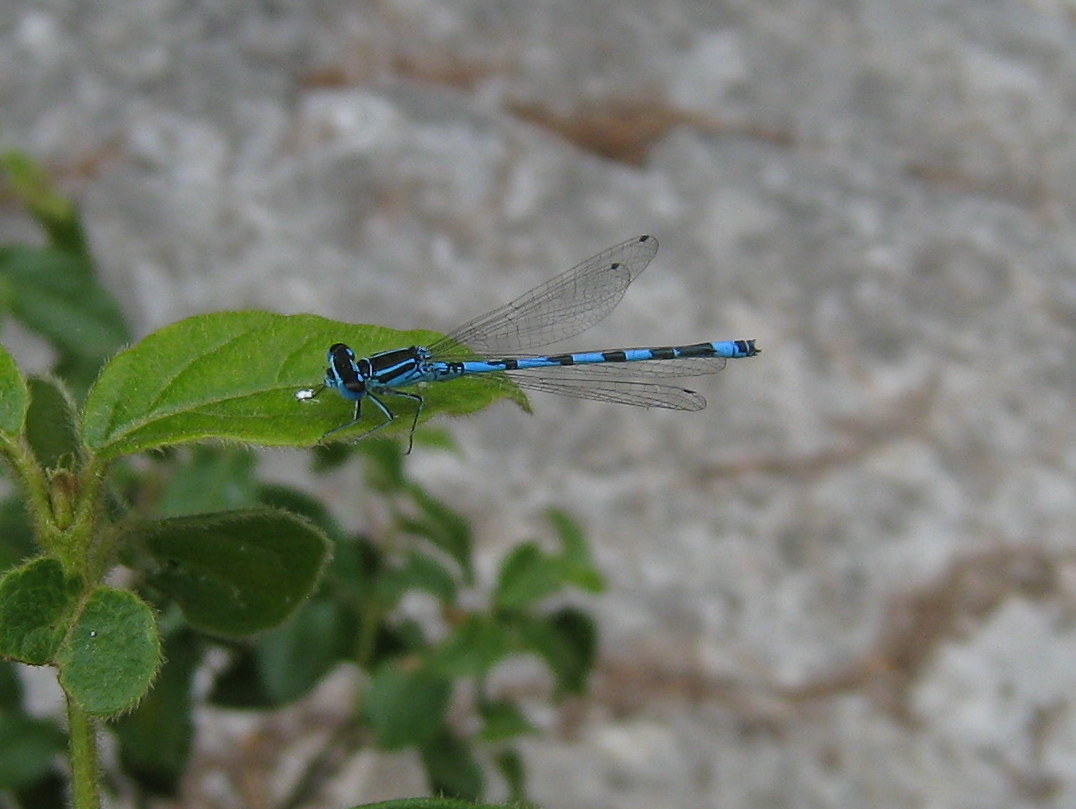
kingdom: Animalia
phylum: Arthropoda
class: Insecta
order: Odonata
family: Coenagrionidae
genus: Coenagrion
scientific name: Coenagrion mercuriale
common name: Southern damselfly
